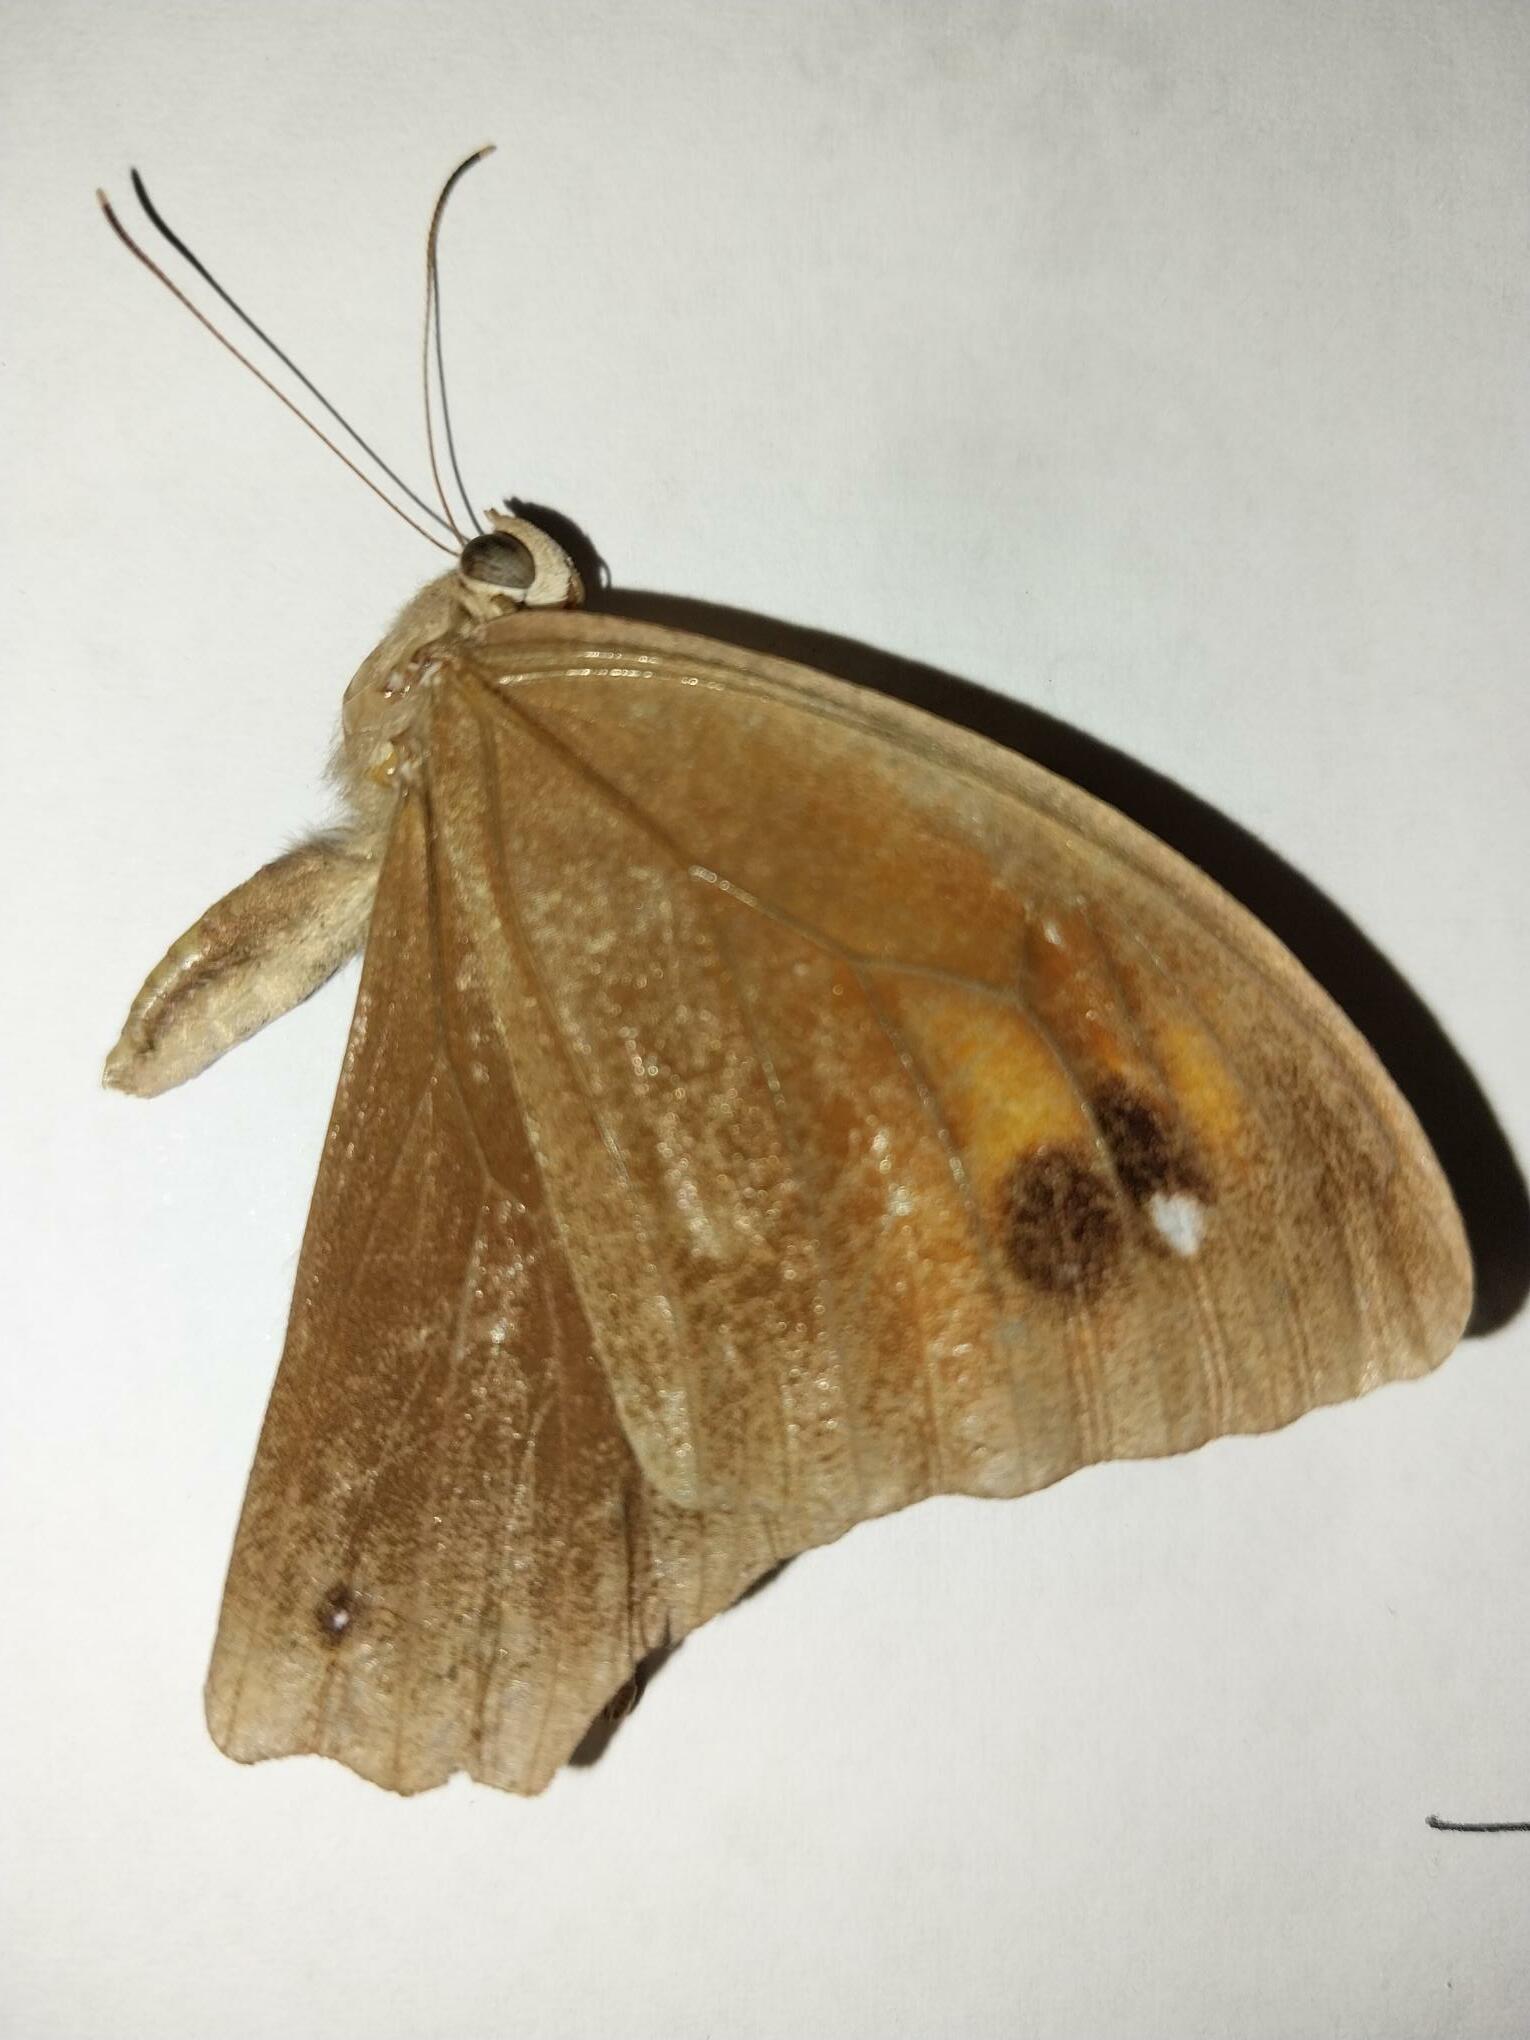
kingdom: Animalia
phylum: Arthropoda
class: Insecta
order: Lepidoptera
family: Nymphalidae
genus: Melanitis
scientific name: Melanitis leda
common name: Twilight brown
